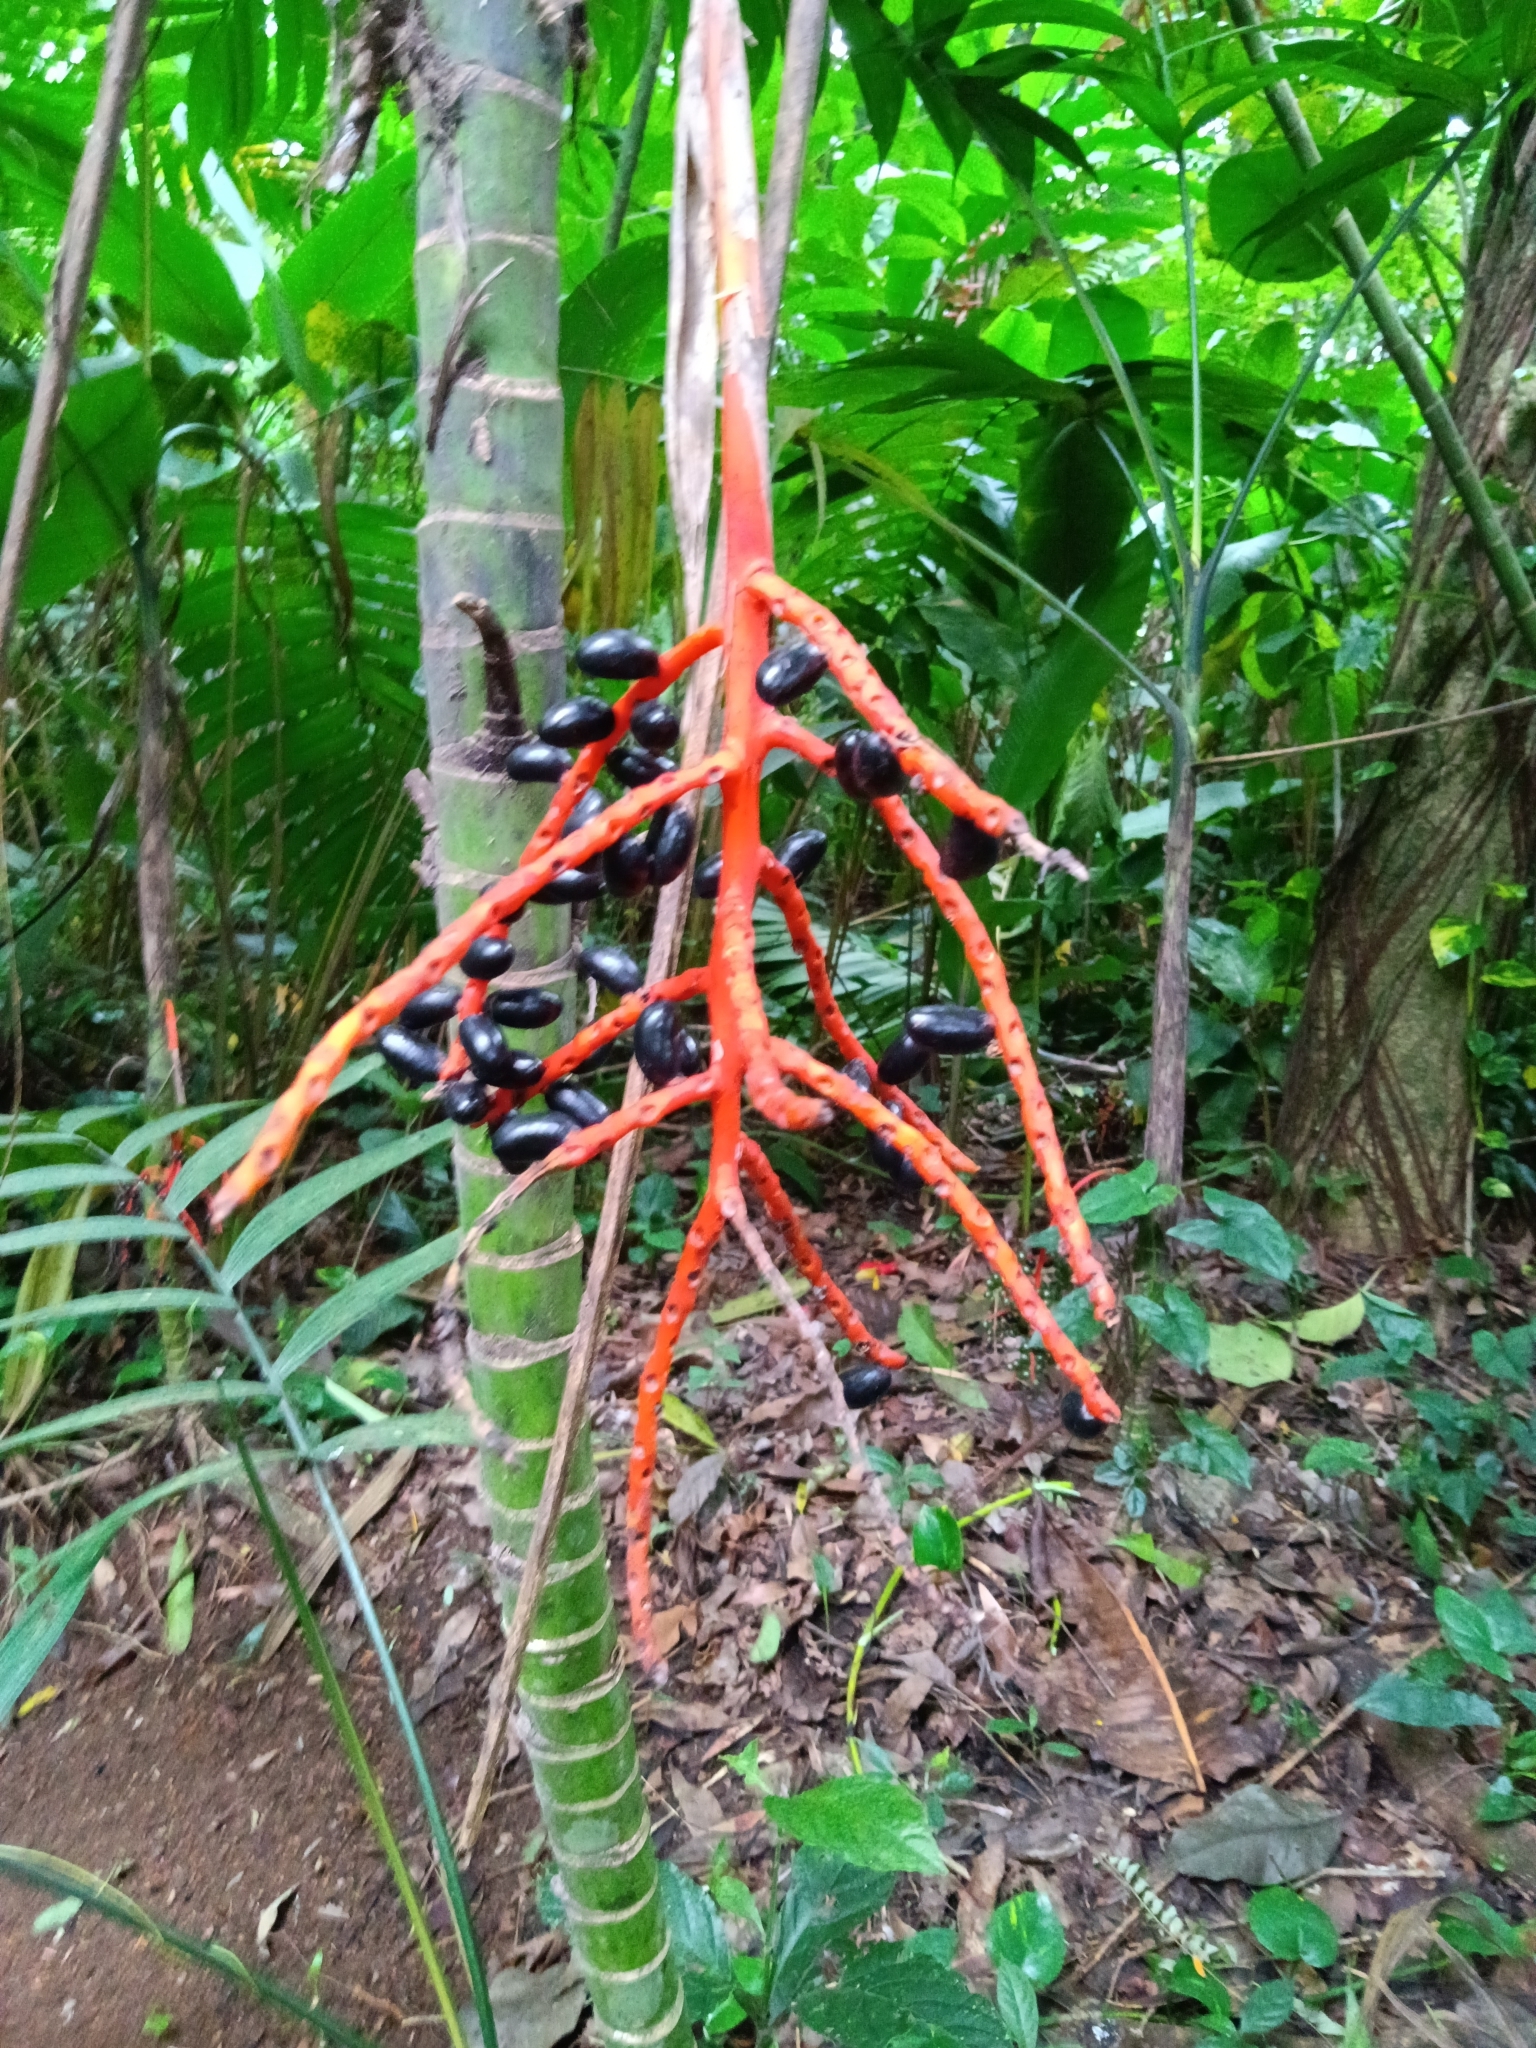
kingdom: Plantae
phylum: Tracheophyta
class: Liliopsida
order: Arecales
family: Arecaceae
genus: Chamaedorea
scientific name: Chamaedorea tepejilote
